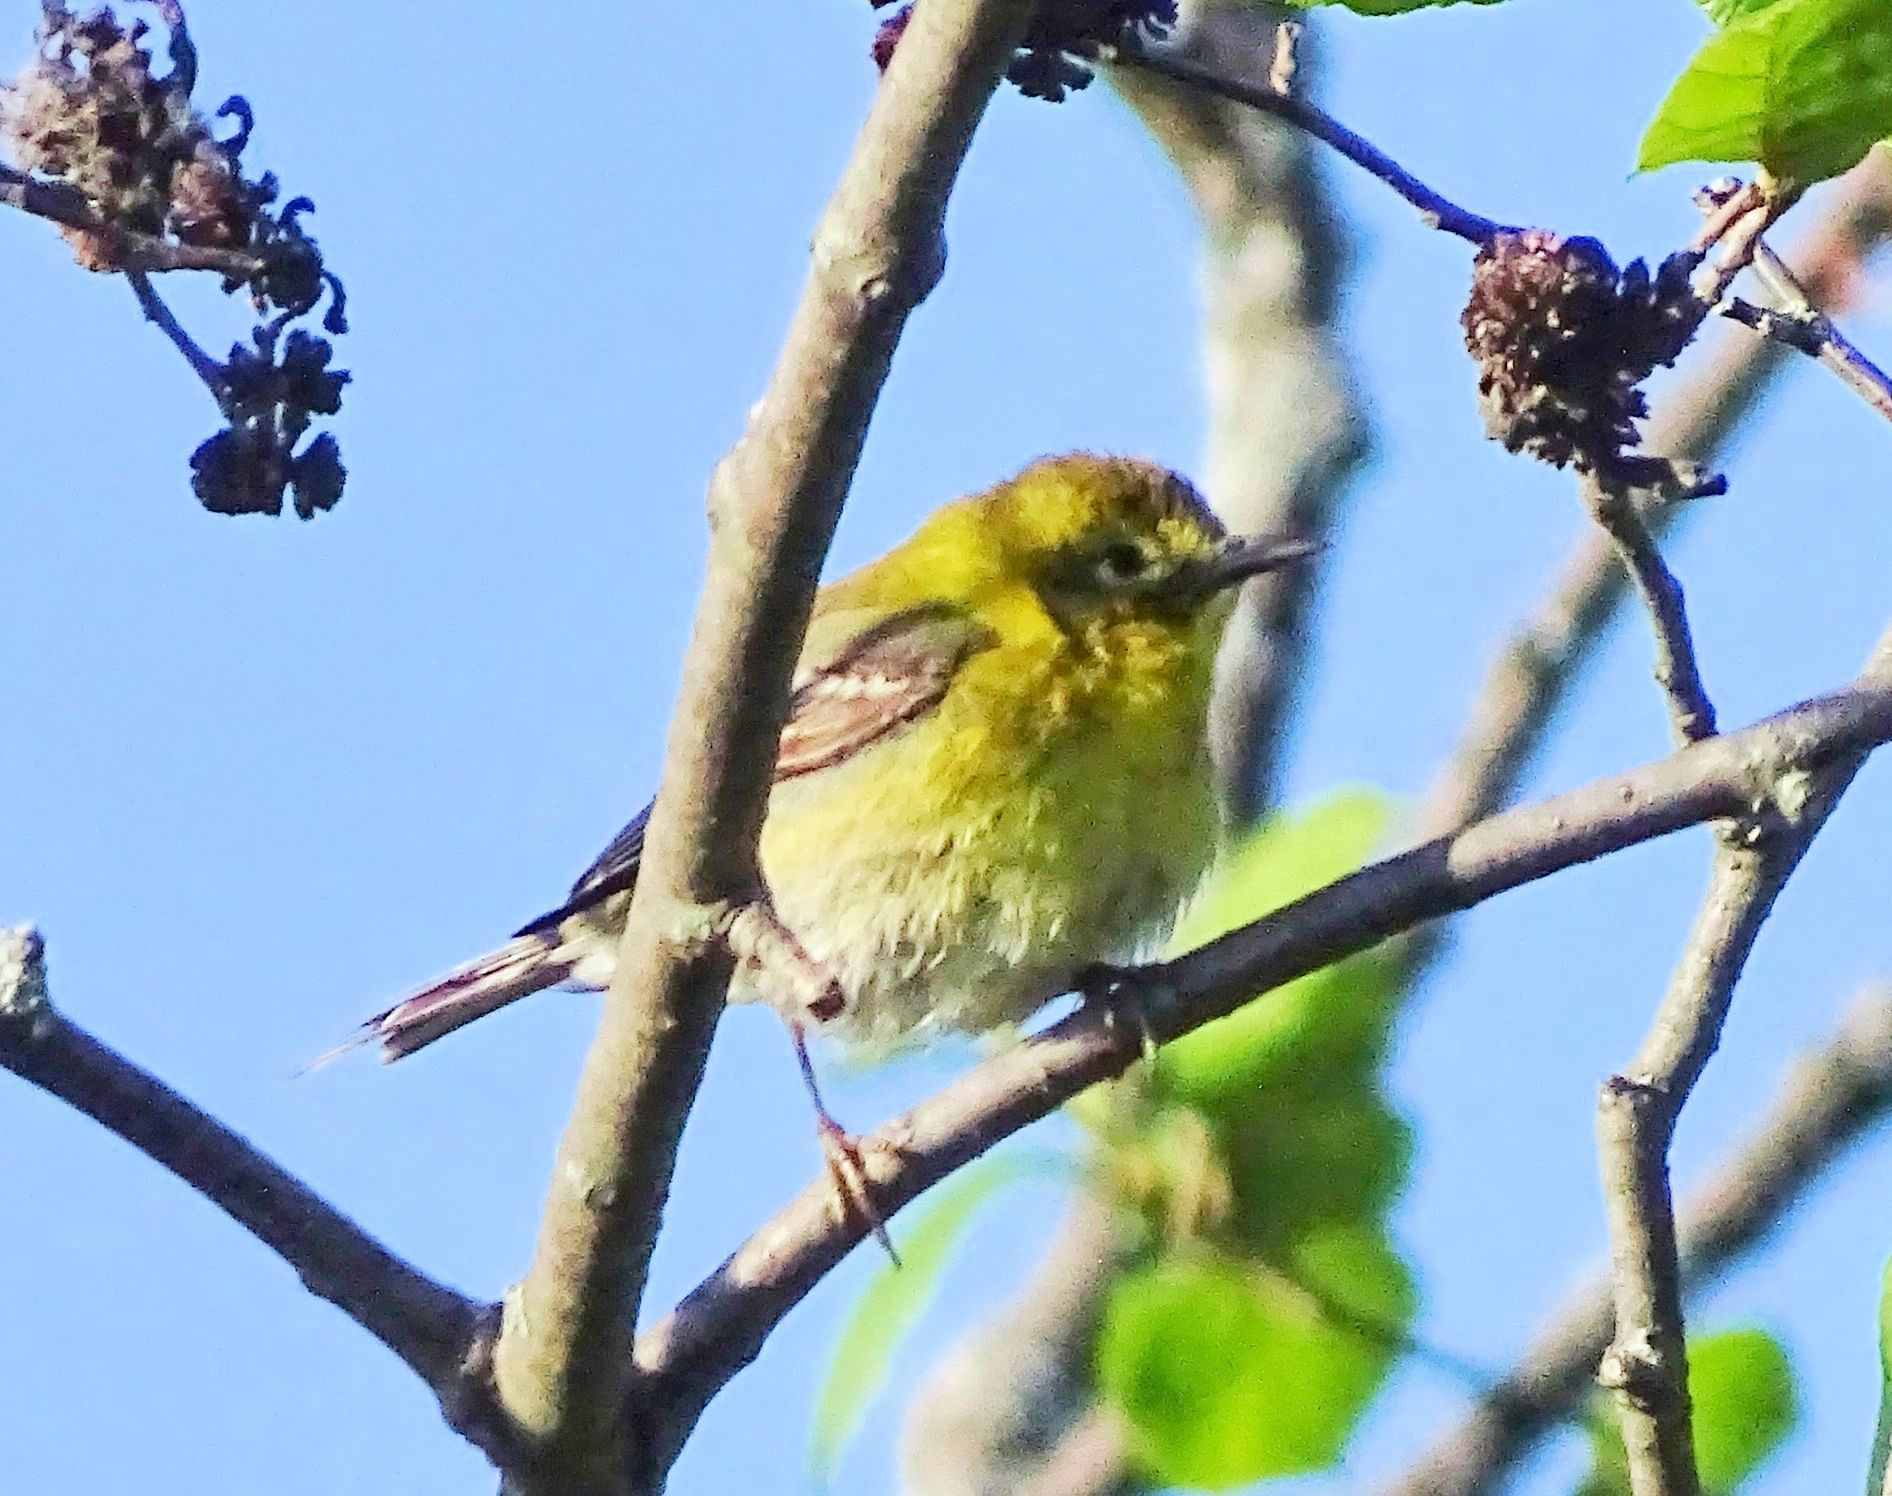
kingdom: Animalia
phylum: Chordata
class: Aves
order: Passeriformes
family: Parulidae
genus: Setophaga
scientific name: Setophaga pinus
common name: Pine warbler
